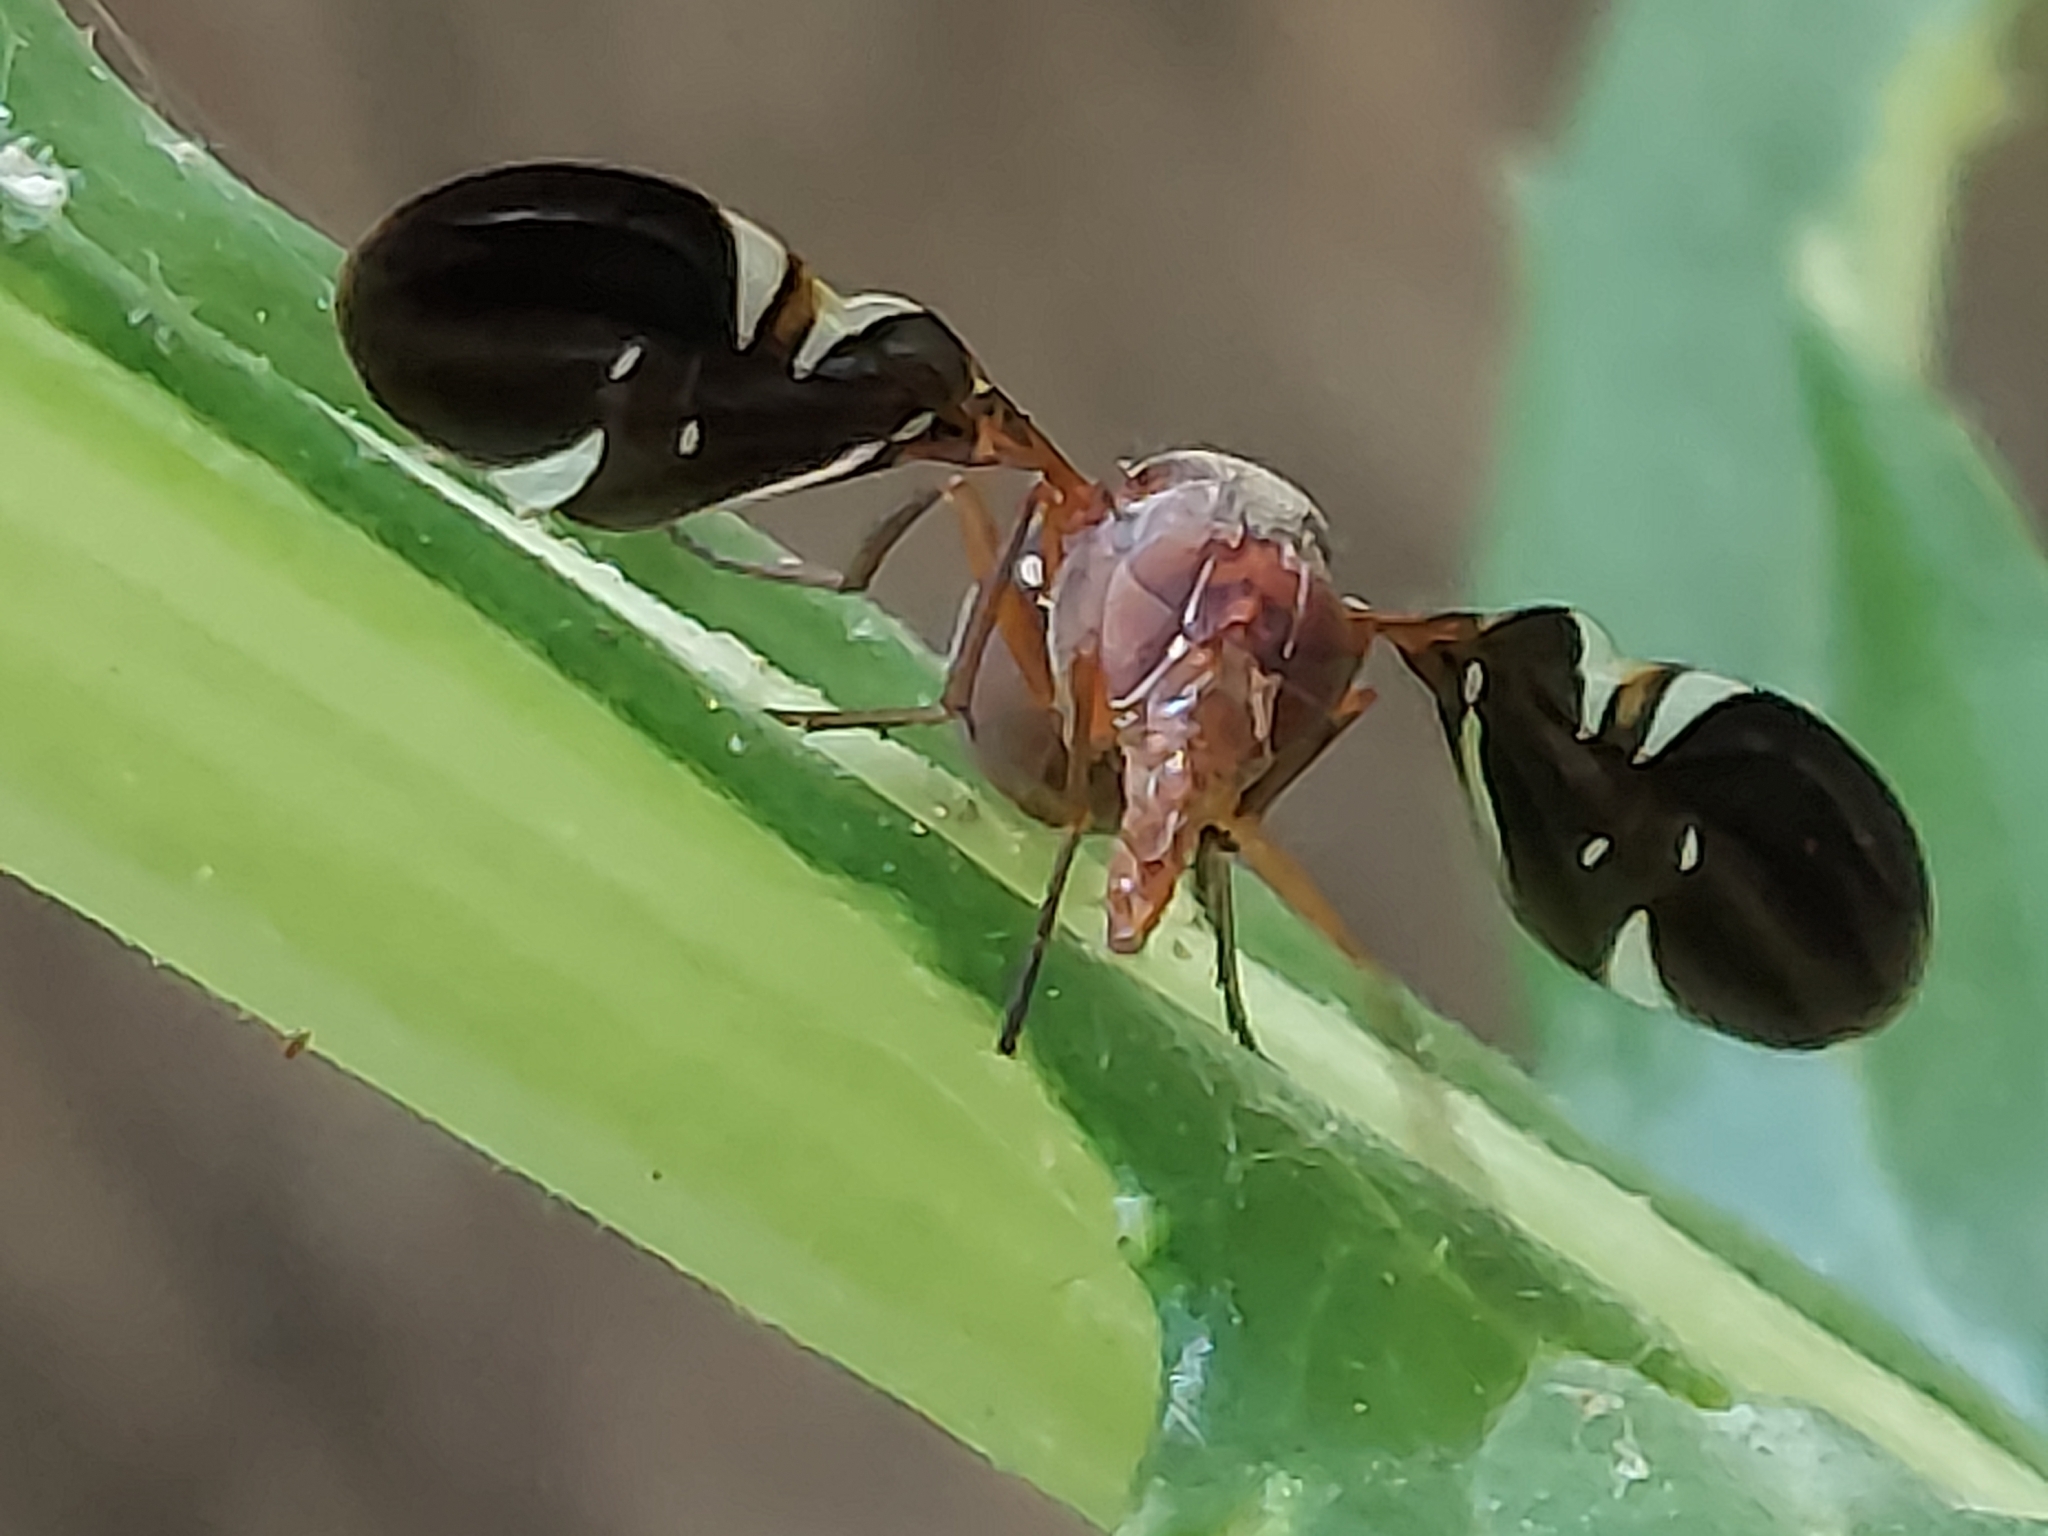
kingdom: Animalia
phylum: Arthropoda
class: Insecta
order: Diptera
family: Ulidiidae
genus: Delphinia
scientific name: Delphinia picta
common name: Common picture-winged fly
